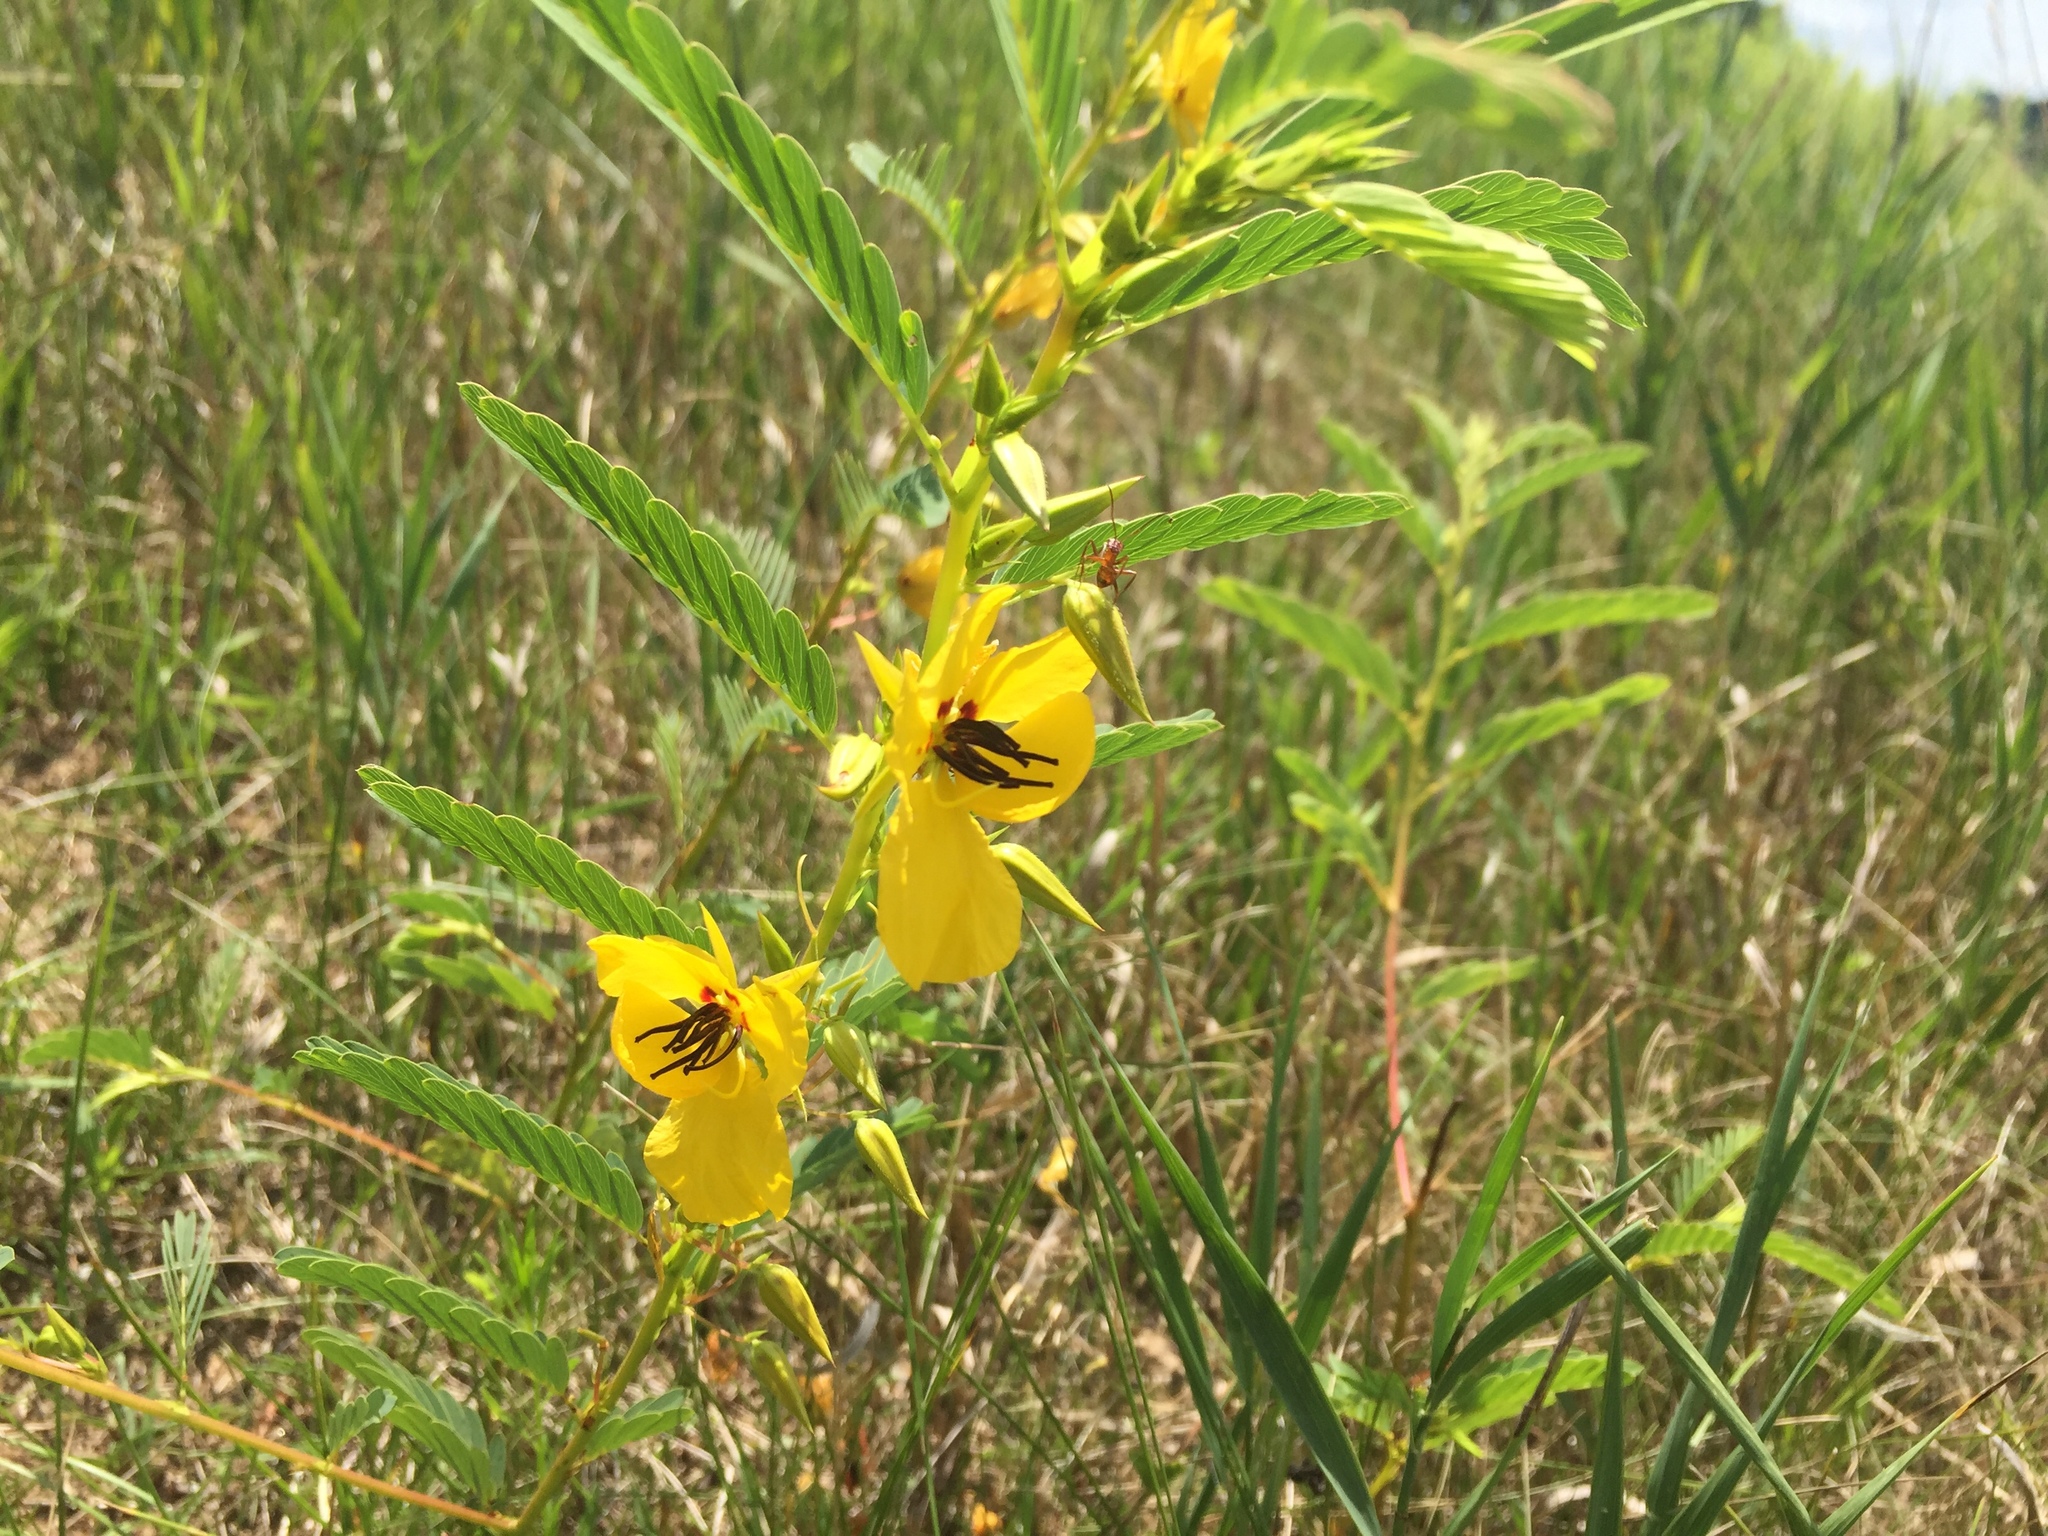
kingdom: Plantae
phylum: Tracheophyta
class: Magnoliopsida
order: Fabales
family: Fabaceae
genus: Chamaecrista
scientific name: Chamaecrista fasciculata
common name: Golden cassia
